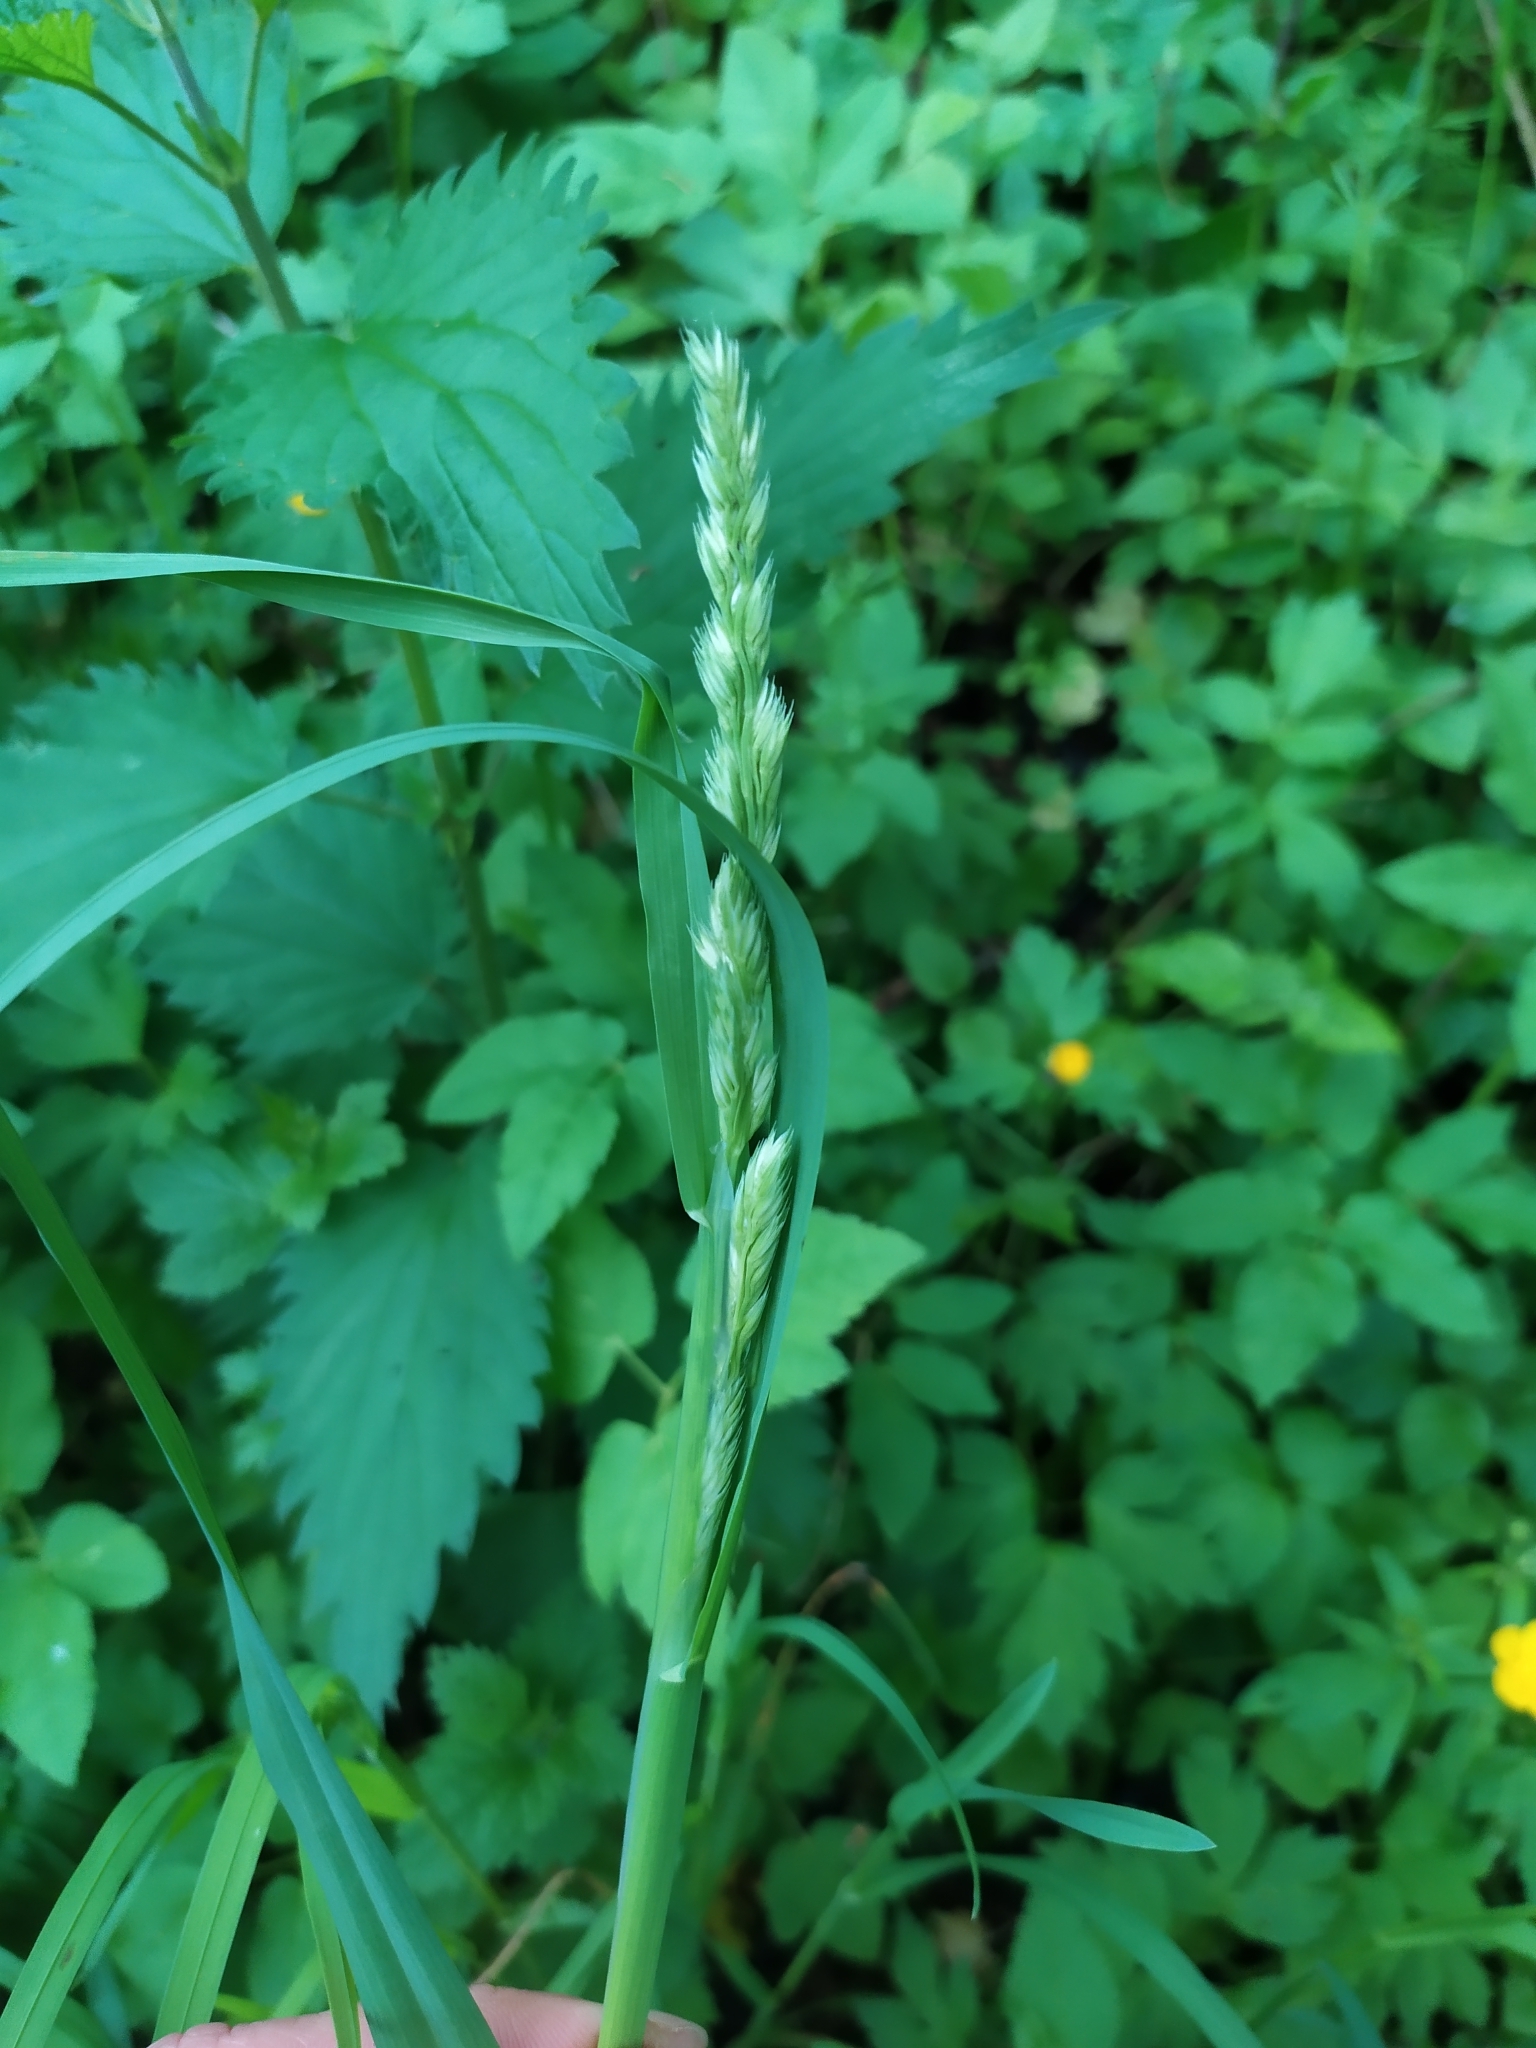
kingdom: Plantae
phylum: Tracheophyta
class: Liliopsida
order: Poales
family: Poaceae
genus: Dactylis
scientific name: Dactylis glomerata
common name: Orchardgrass
